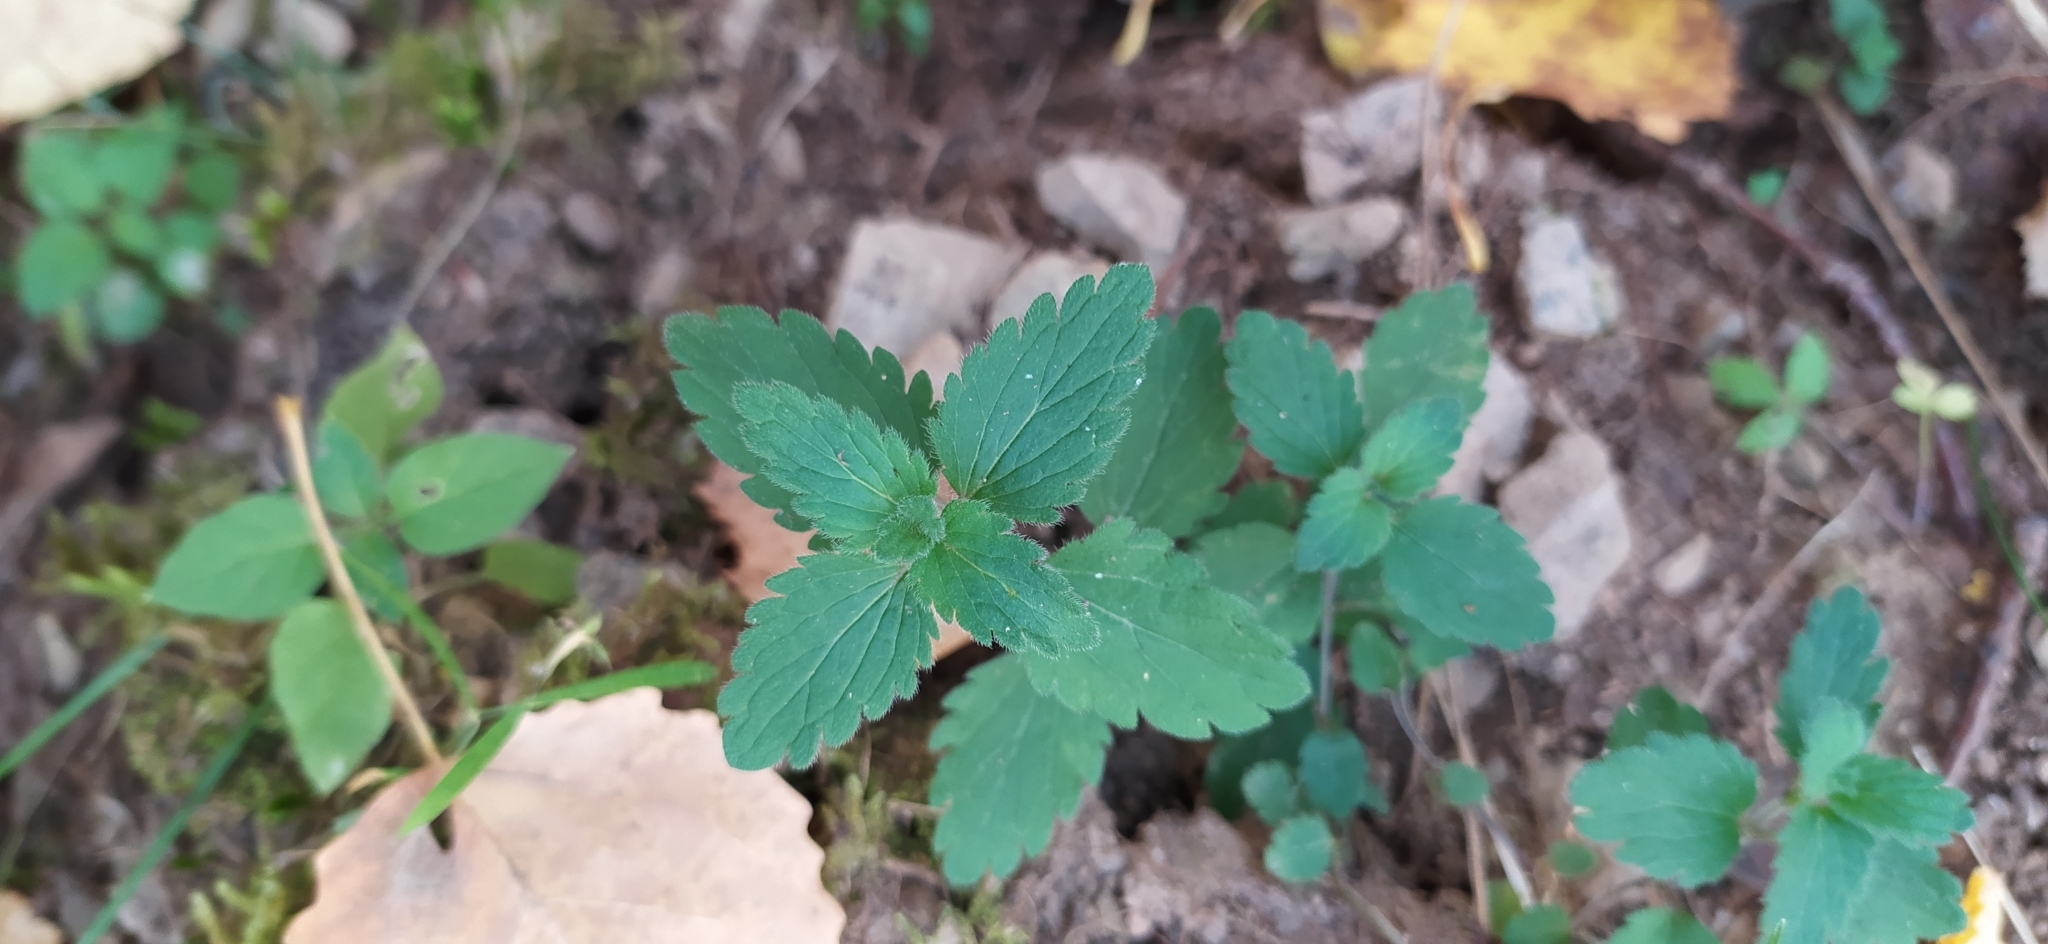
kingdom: Plantae
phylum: Tracheophyta
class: Magnoliopsida
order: Lamiales
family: Plantaginaceae
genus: Veronica
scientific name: Veronica chamaedrys
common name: Germander speedwell
